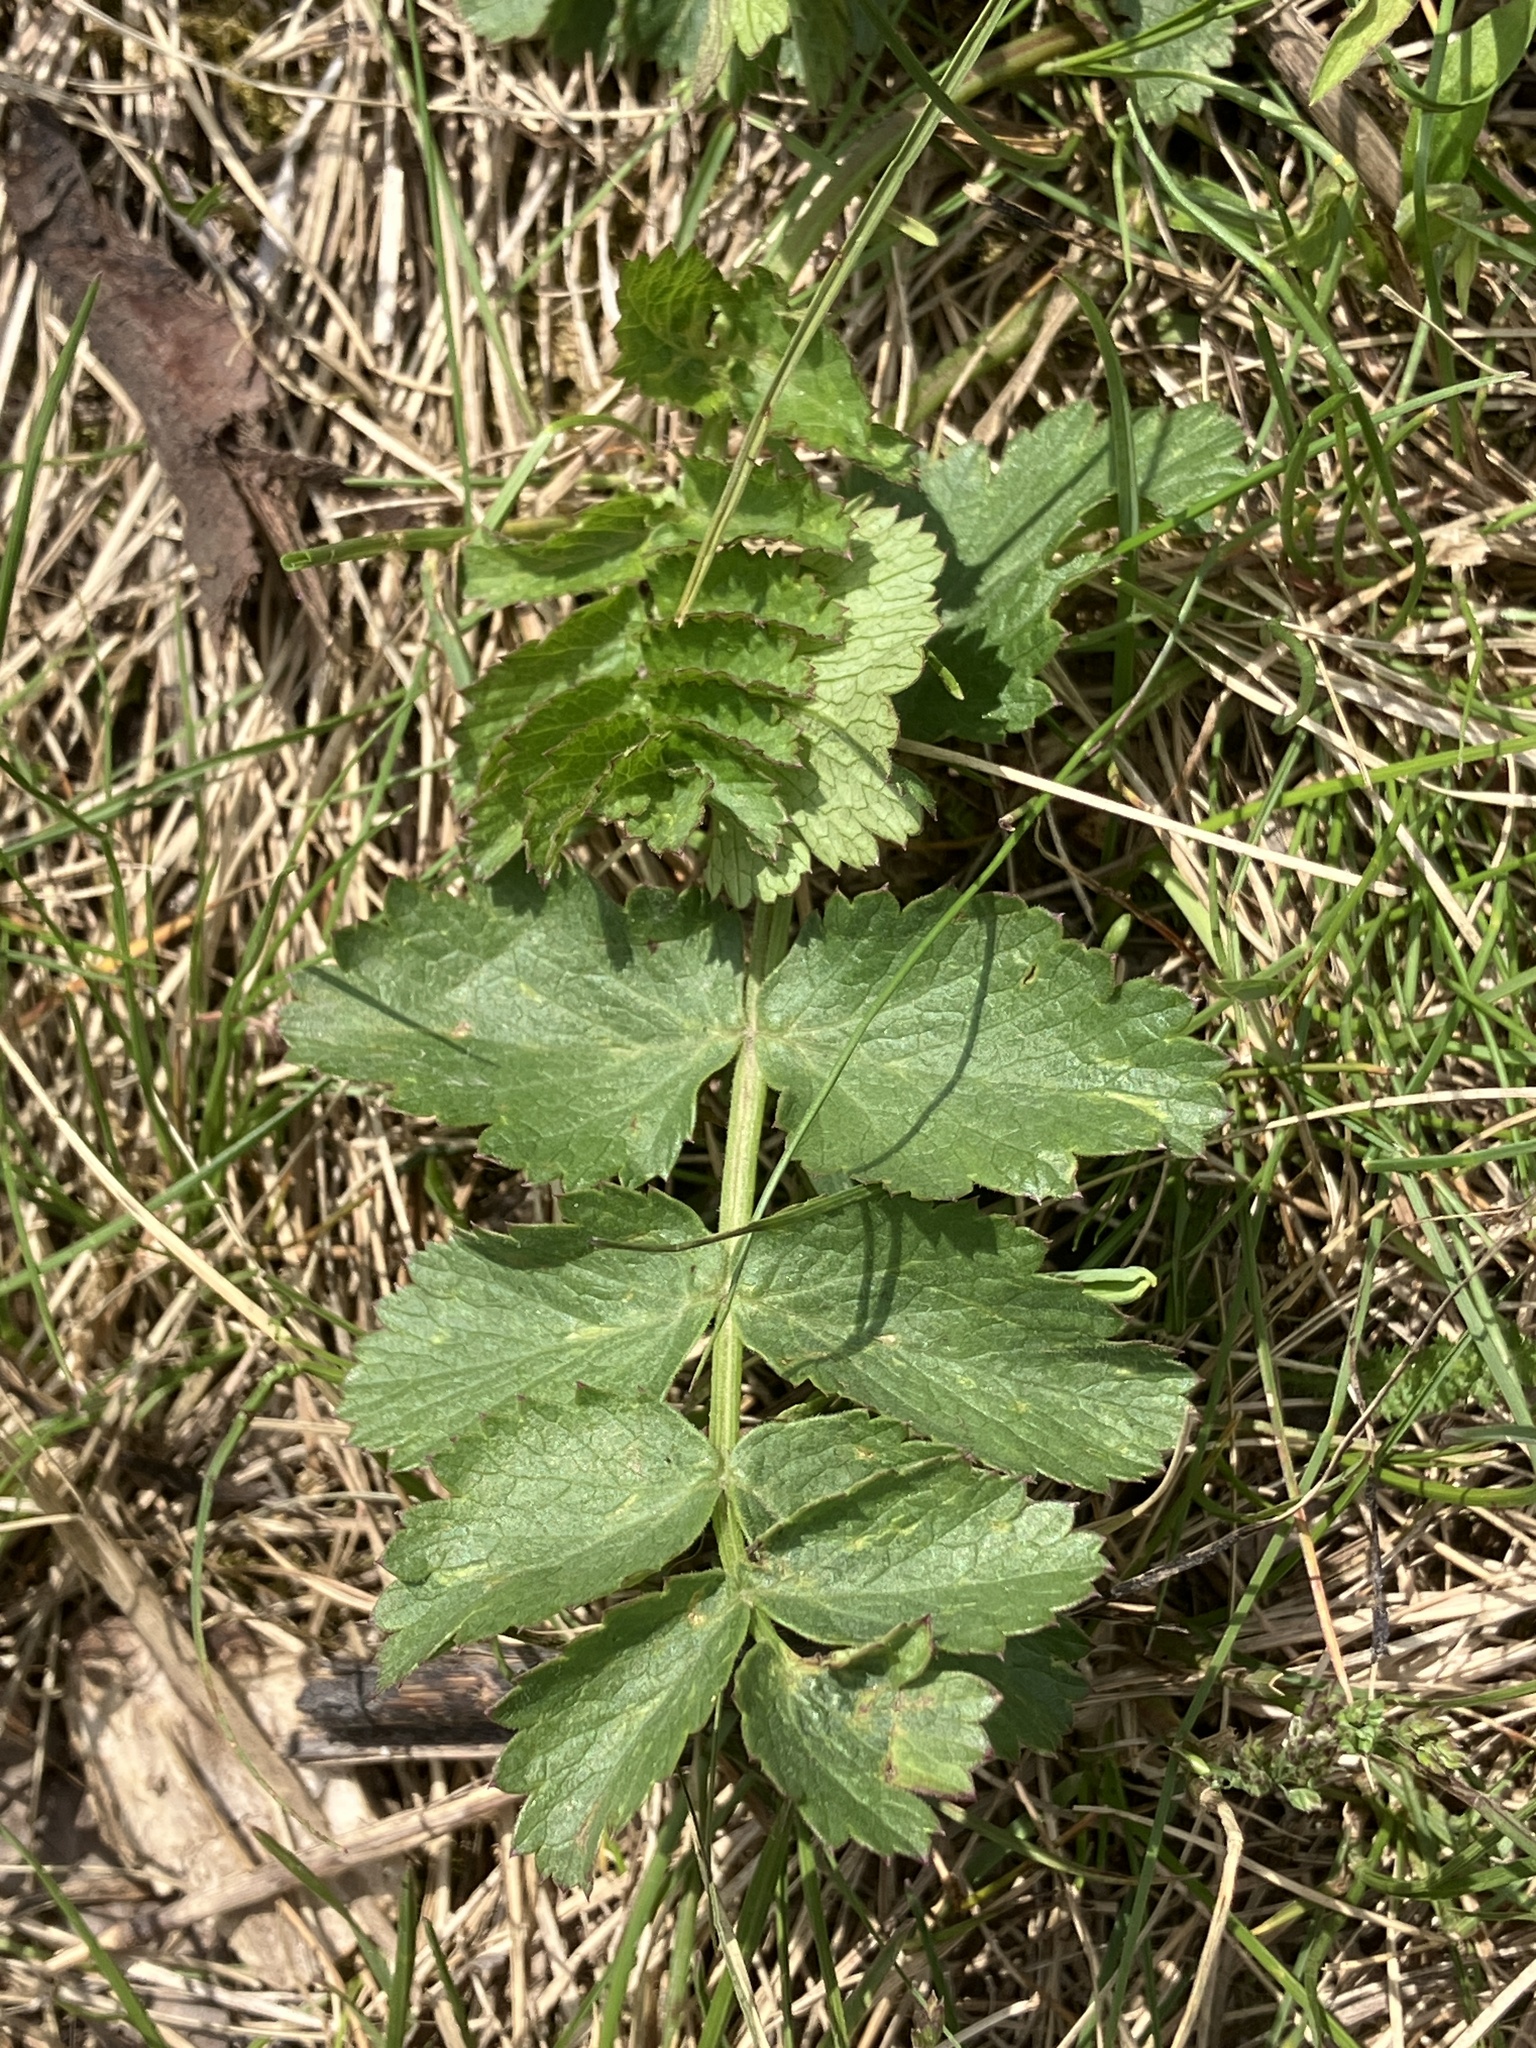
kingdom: Plantae
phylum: Tracheophyta
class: Magnoliopsida
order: Apiales
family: Apiaceae
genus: Pastinaca
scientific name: Pastinaca sativa
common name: Wild parsnip
